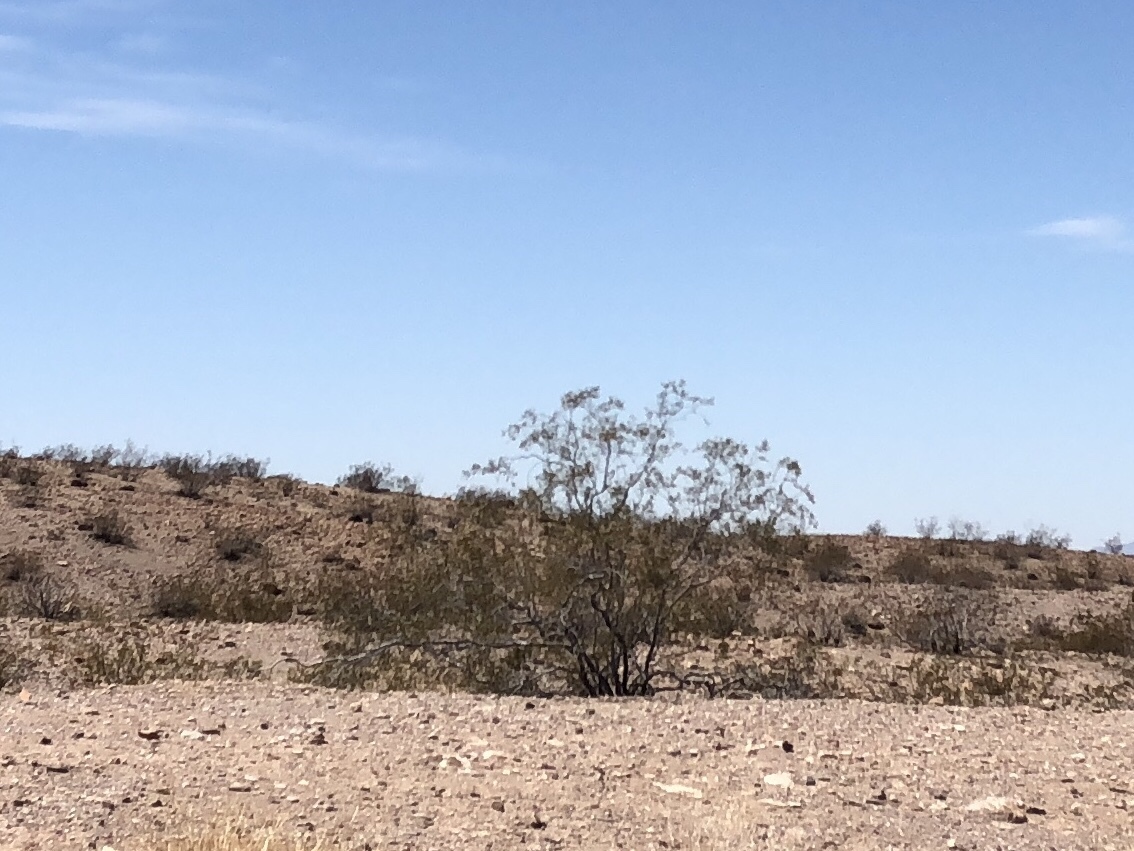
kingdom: Plantae
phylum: Tracheophyta
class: Magnoliopsida
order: Zygophyllales
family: Zygophyllaceae
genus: Larrea
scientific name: Larrea tridentata
